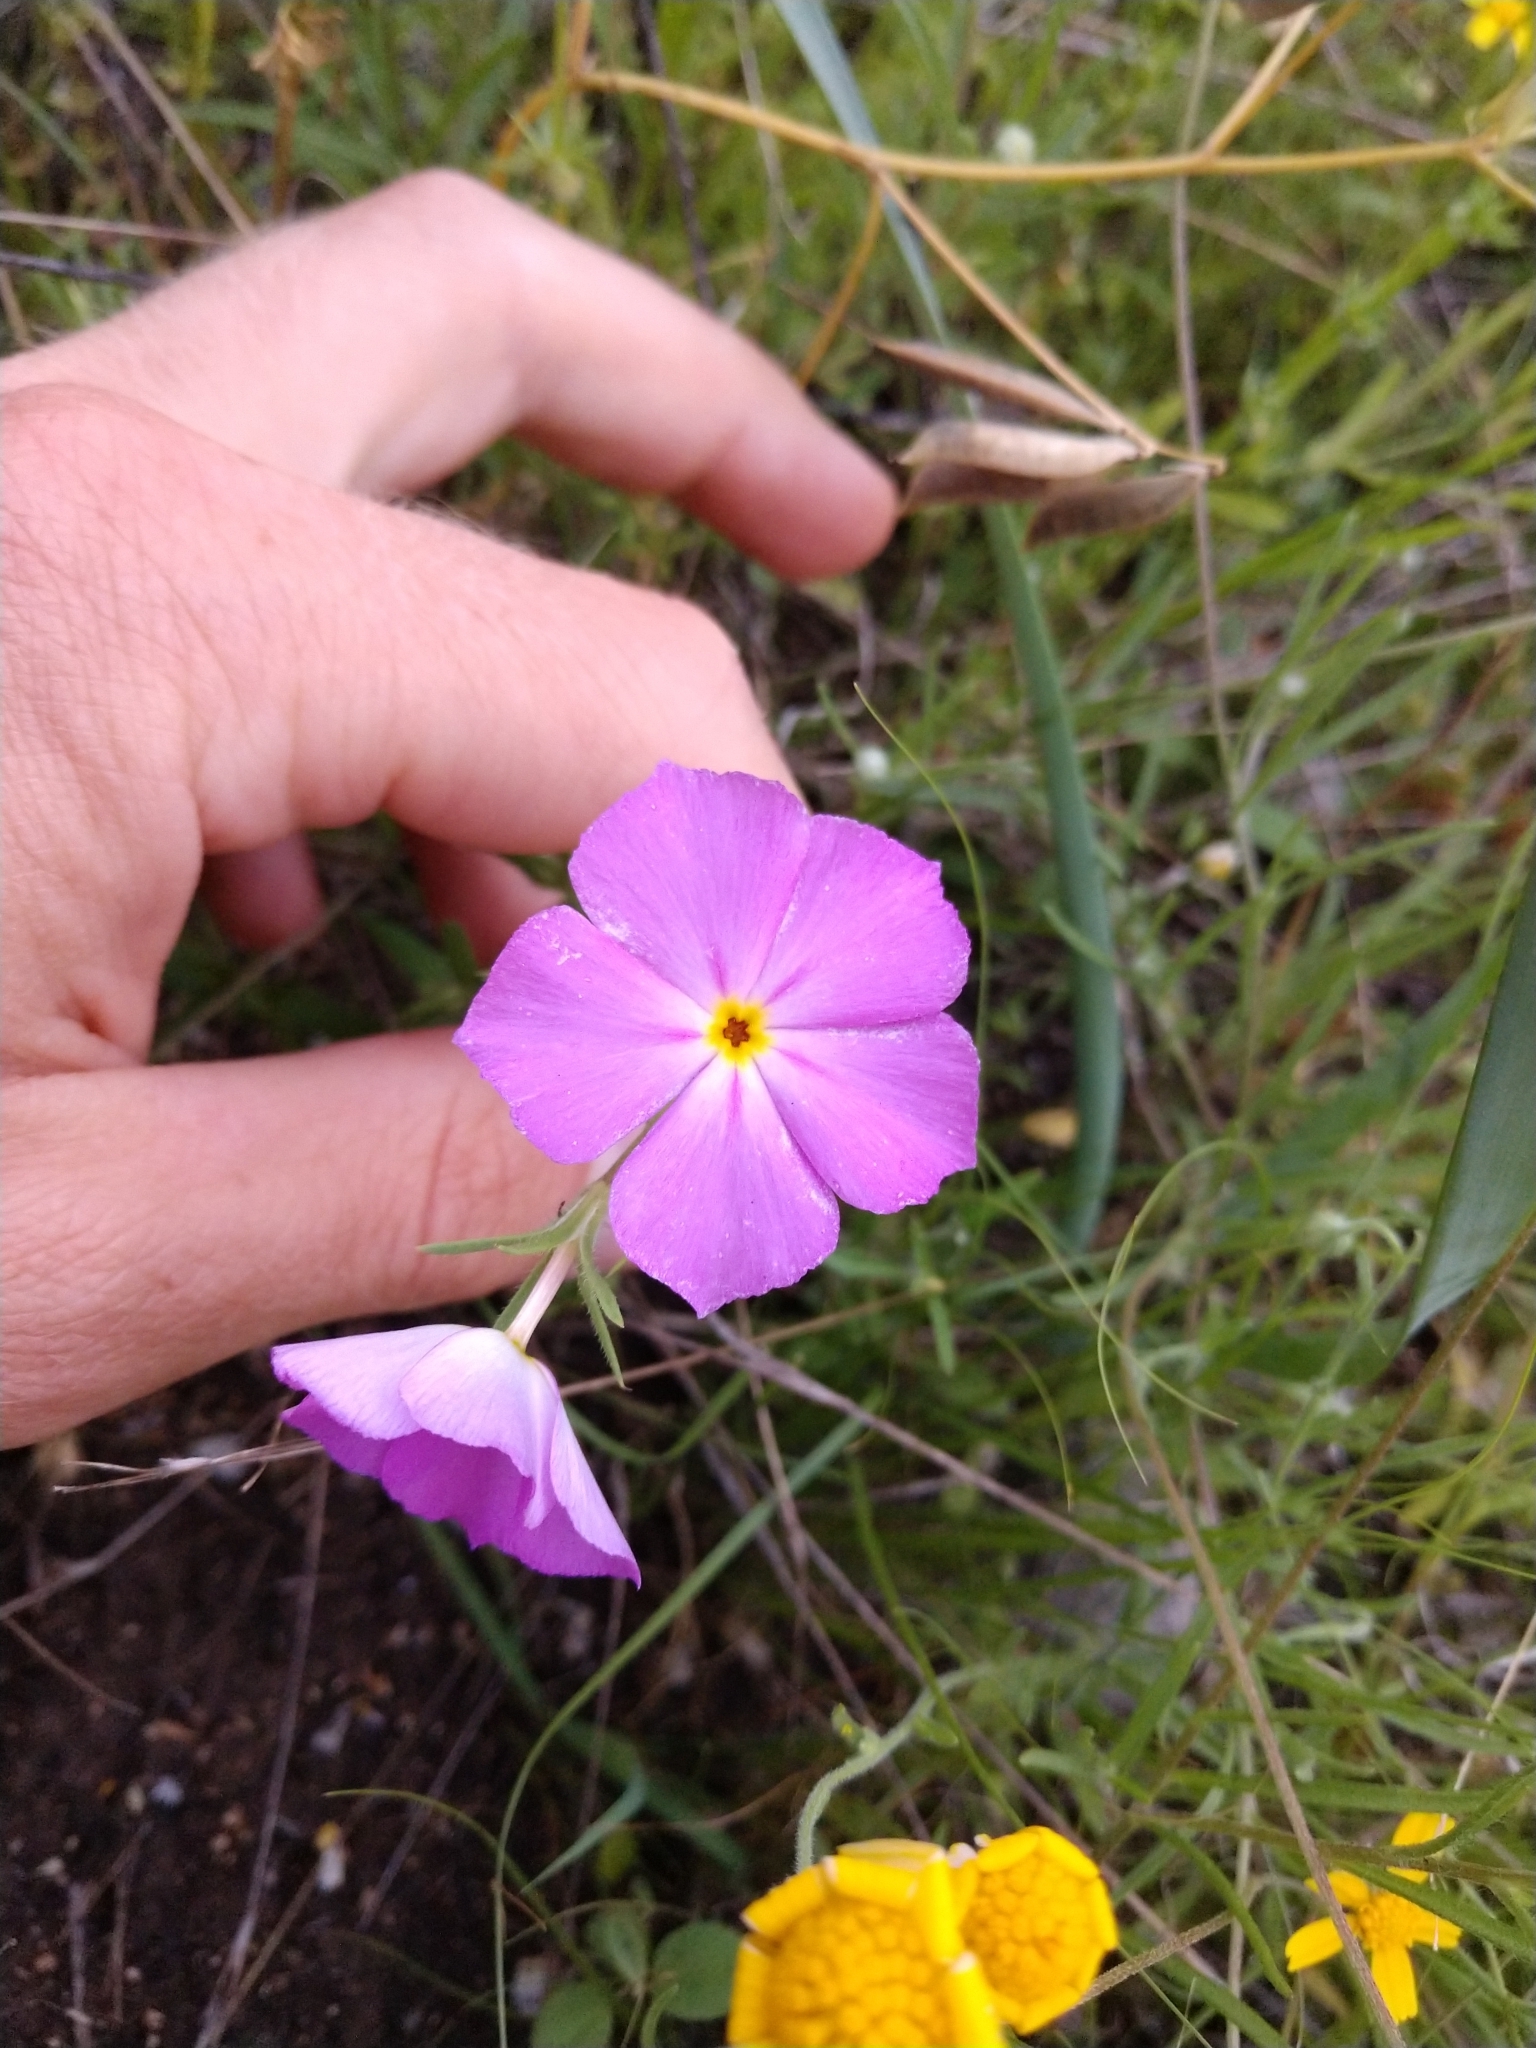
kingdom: Plantae
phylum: Tracheophyta
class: Magnoliopsida
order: Ericales
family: Polemoniaceae
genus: Phlox
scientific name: Phlox roemeriana
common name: Roemer's phlox
